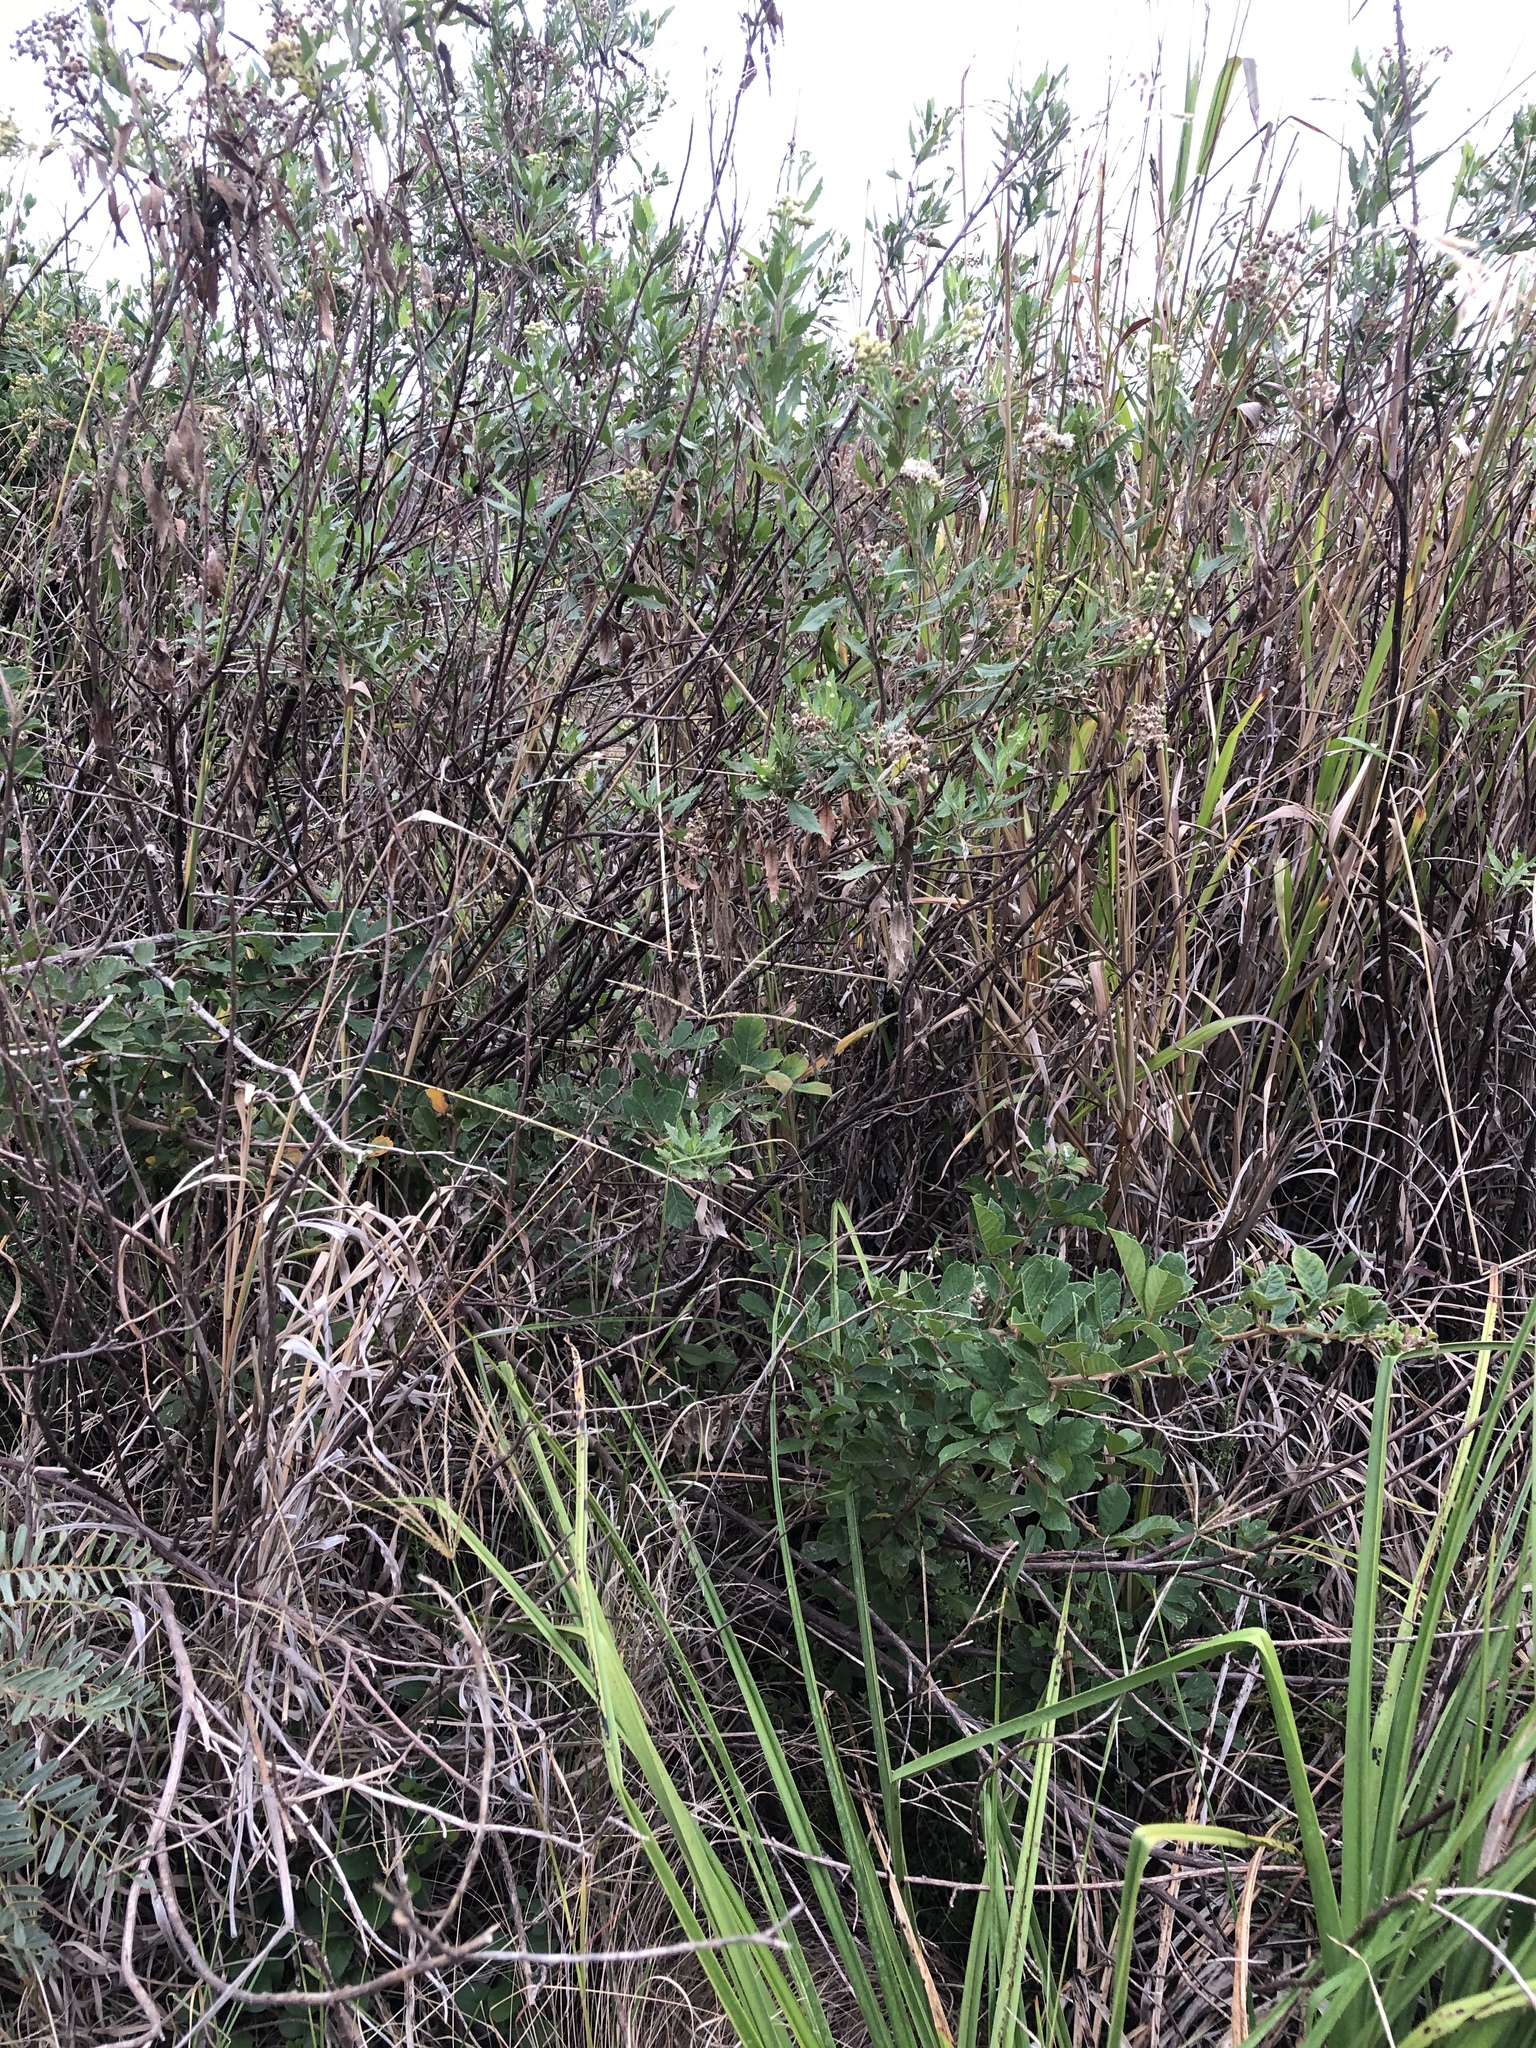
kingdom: Plantae
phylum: Tracheophyta
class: Magnoliopsida
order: Asterales
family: Asteraceae
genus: Nidorella
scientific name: Nidorella ivifolia
